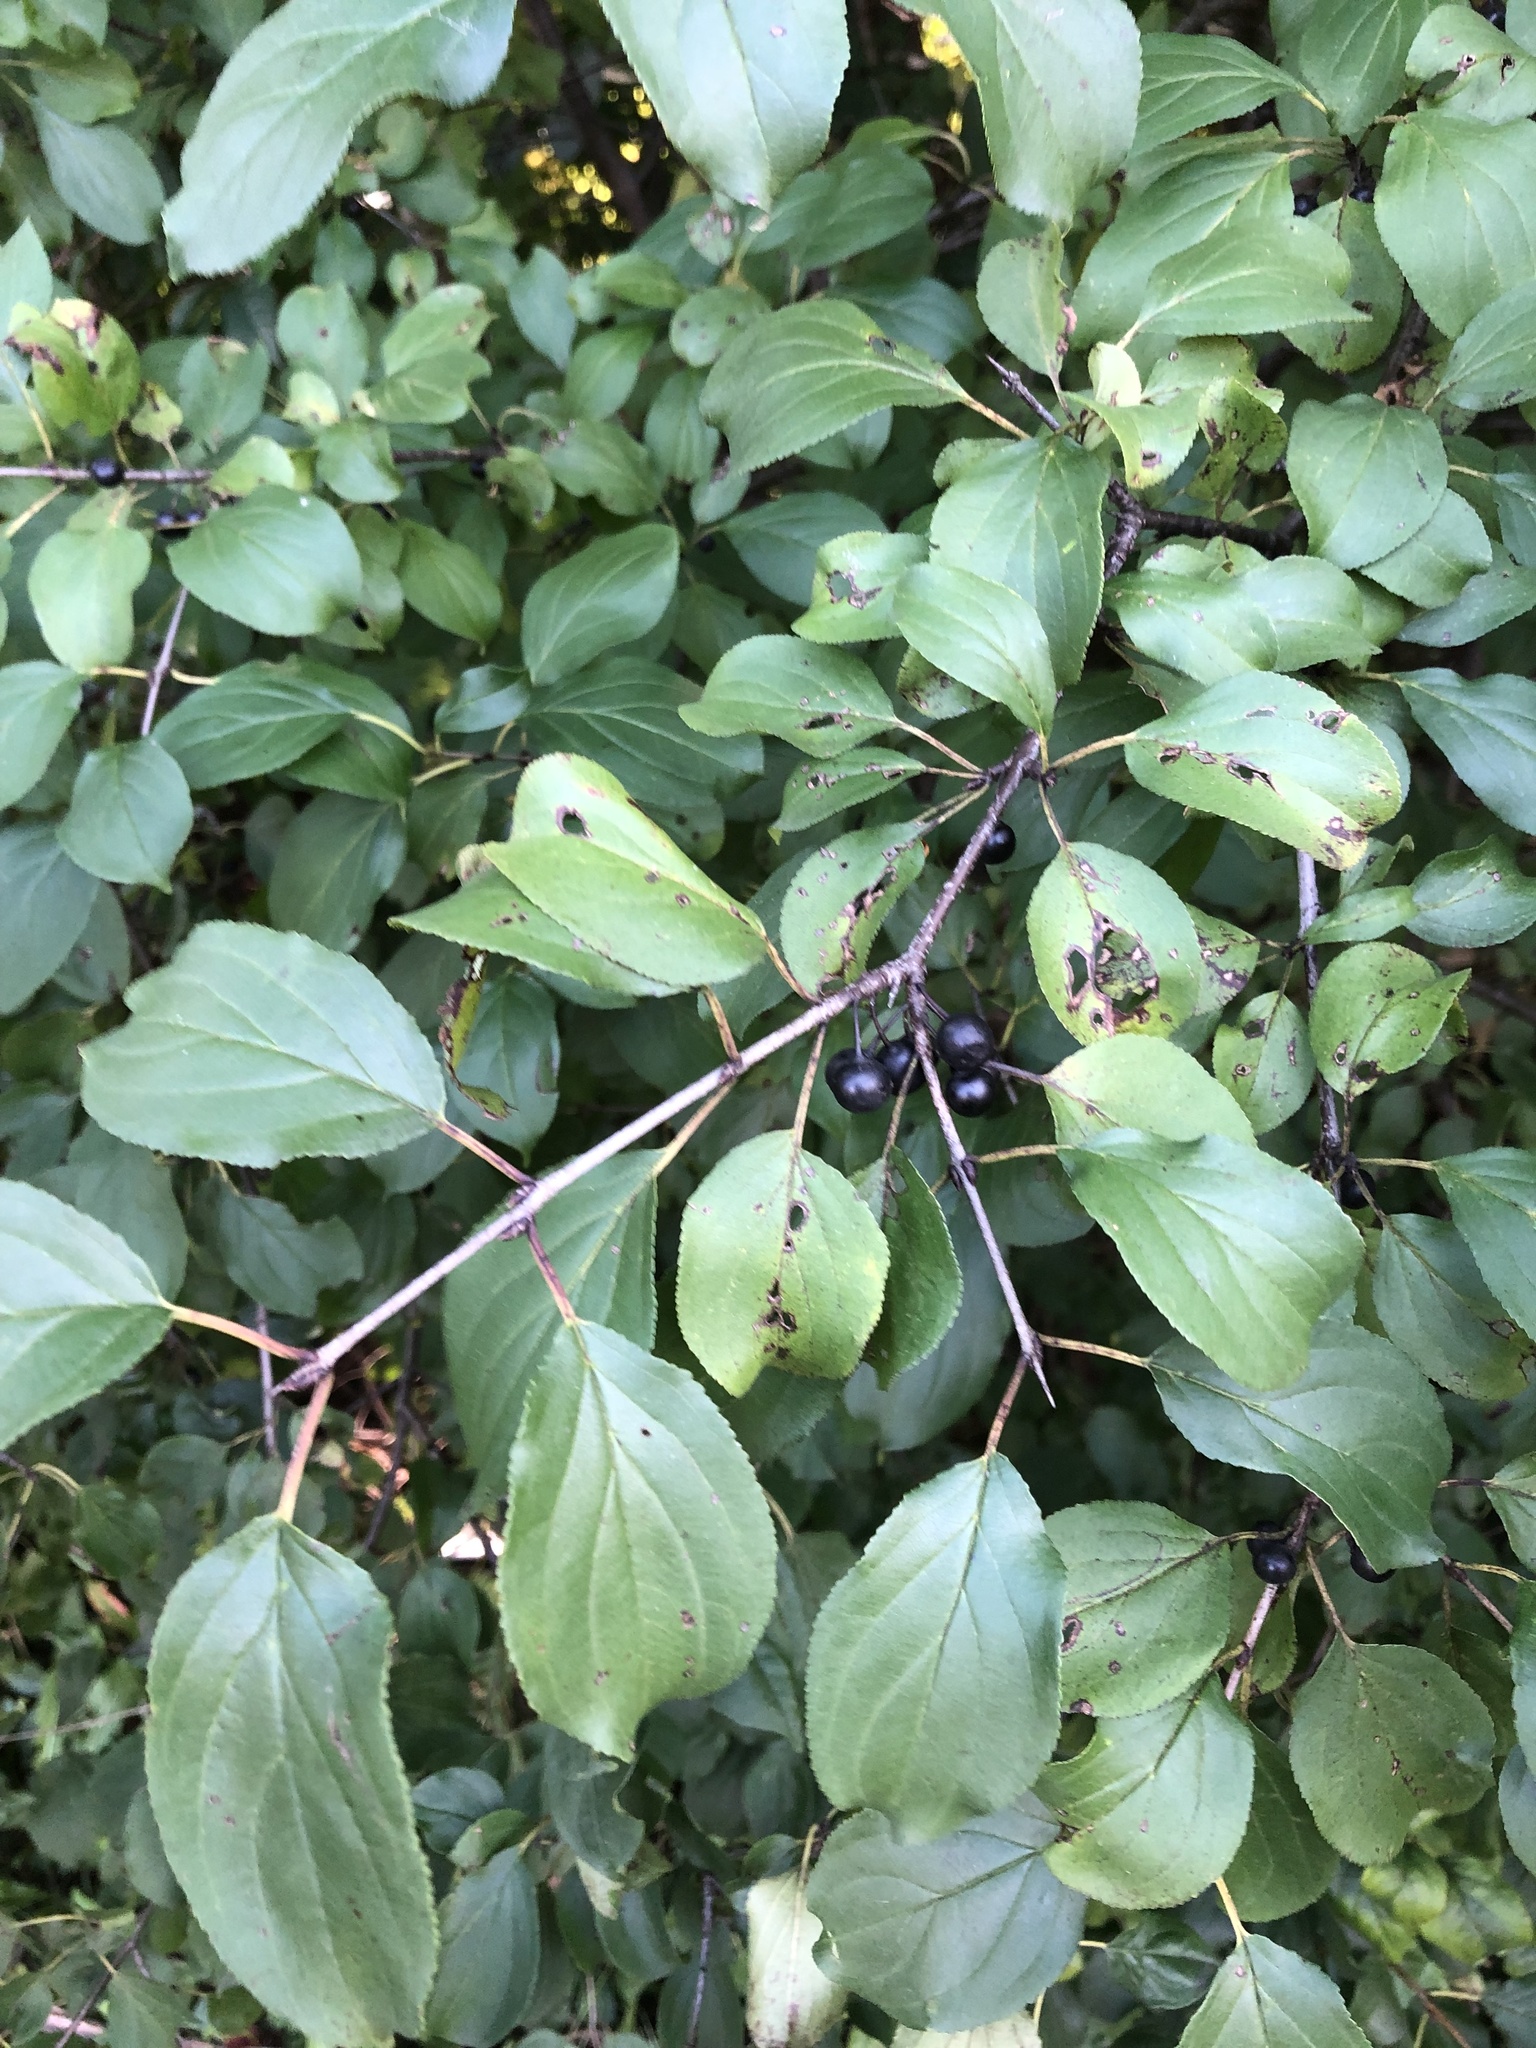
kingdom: Plantae
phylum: Tracheophyta
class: Magnoliopsida
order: Rosales
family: Rhamnaceae
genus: Rhamnus
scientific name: Rhamnus cathartica
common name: Common buckthorn
